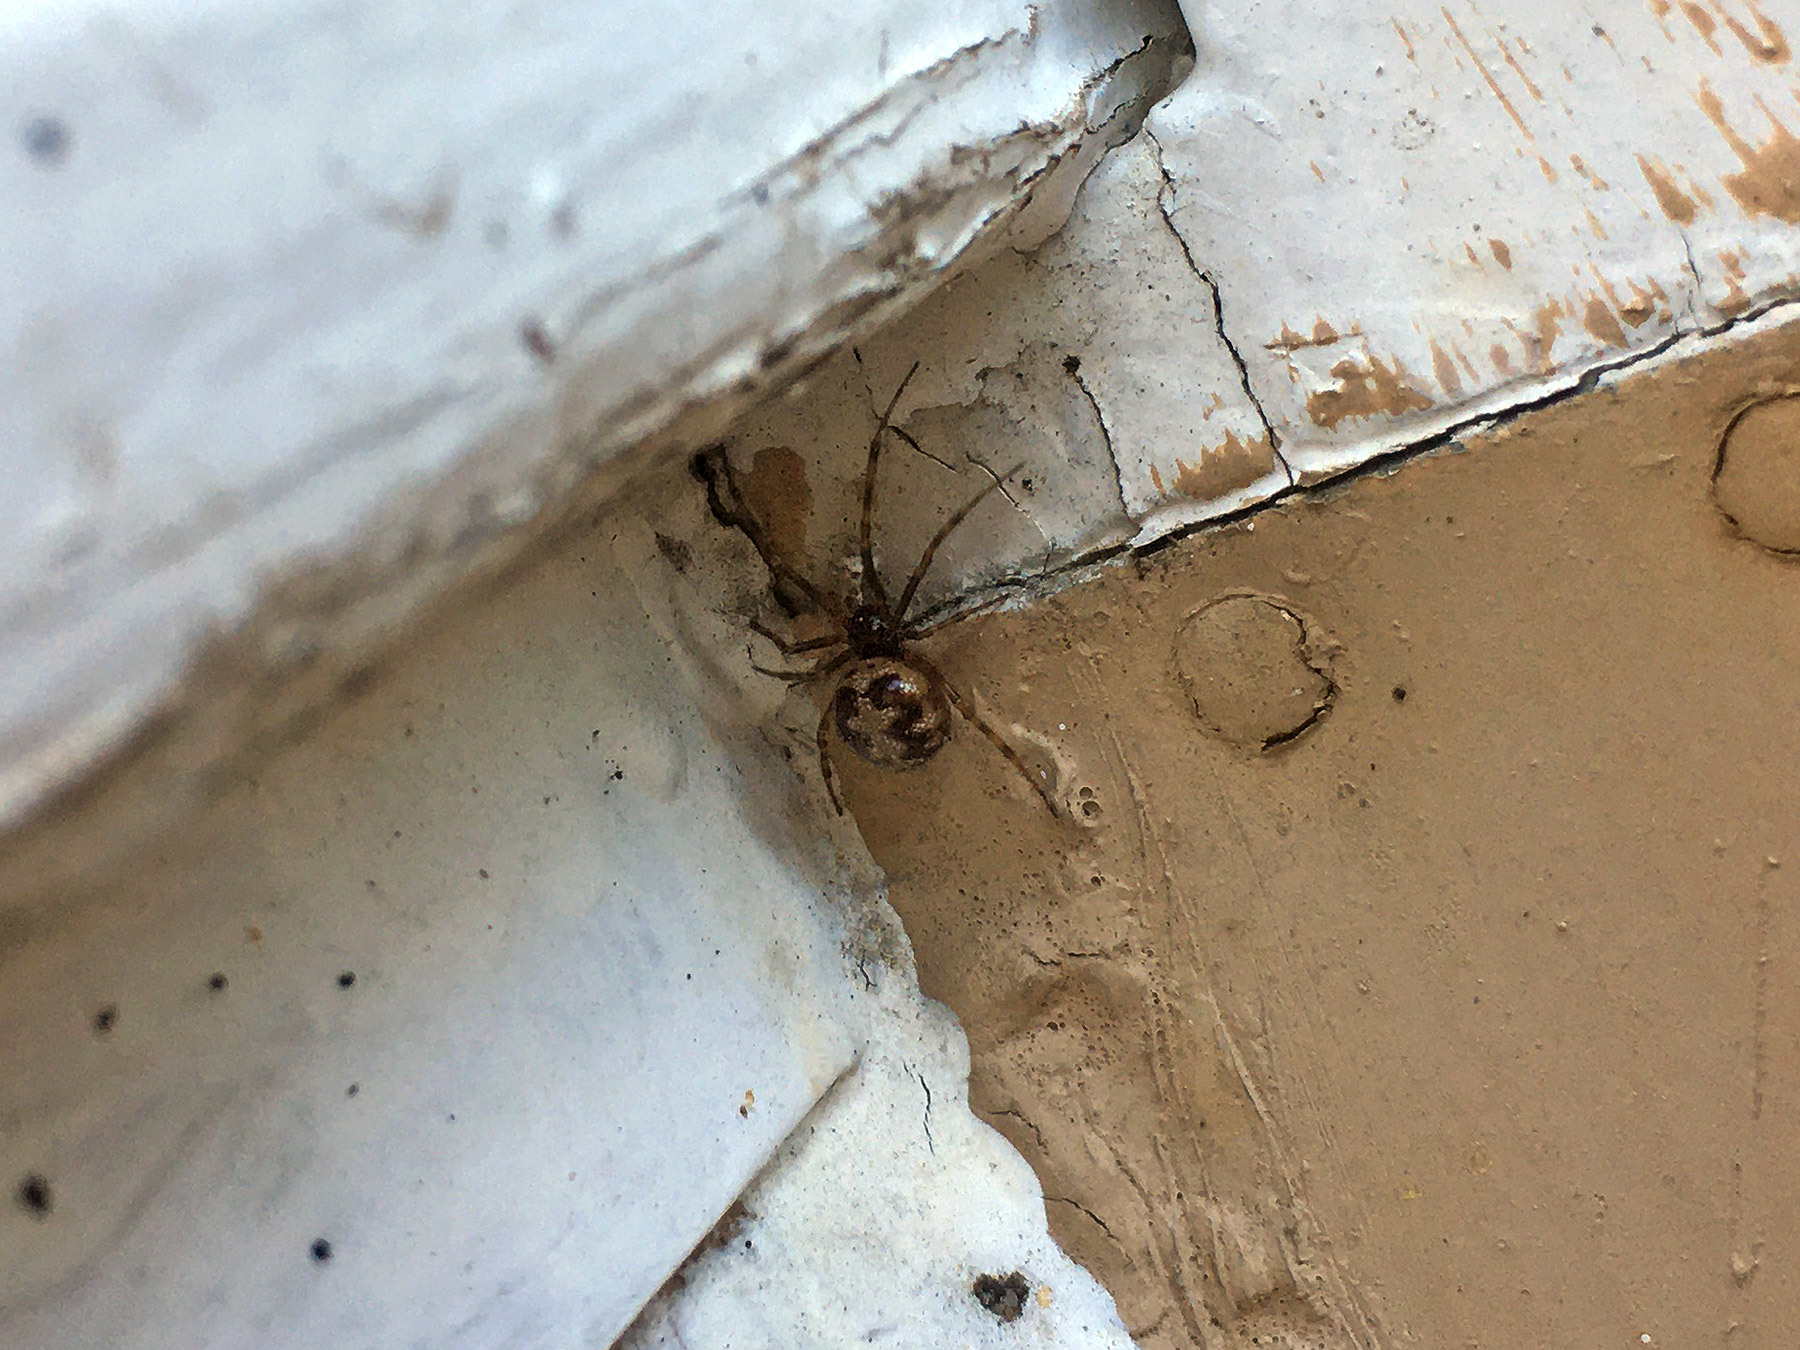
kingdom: Animalia
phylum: Arthropoda
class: Arachnida
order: Araneae
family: Theridiidae
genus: Steatoda
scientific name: Steatoda triangulosa
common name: Triangulate bud spider
